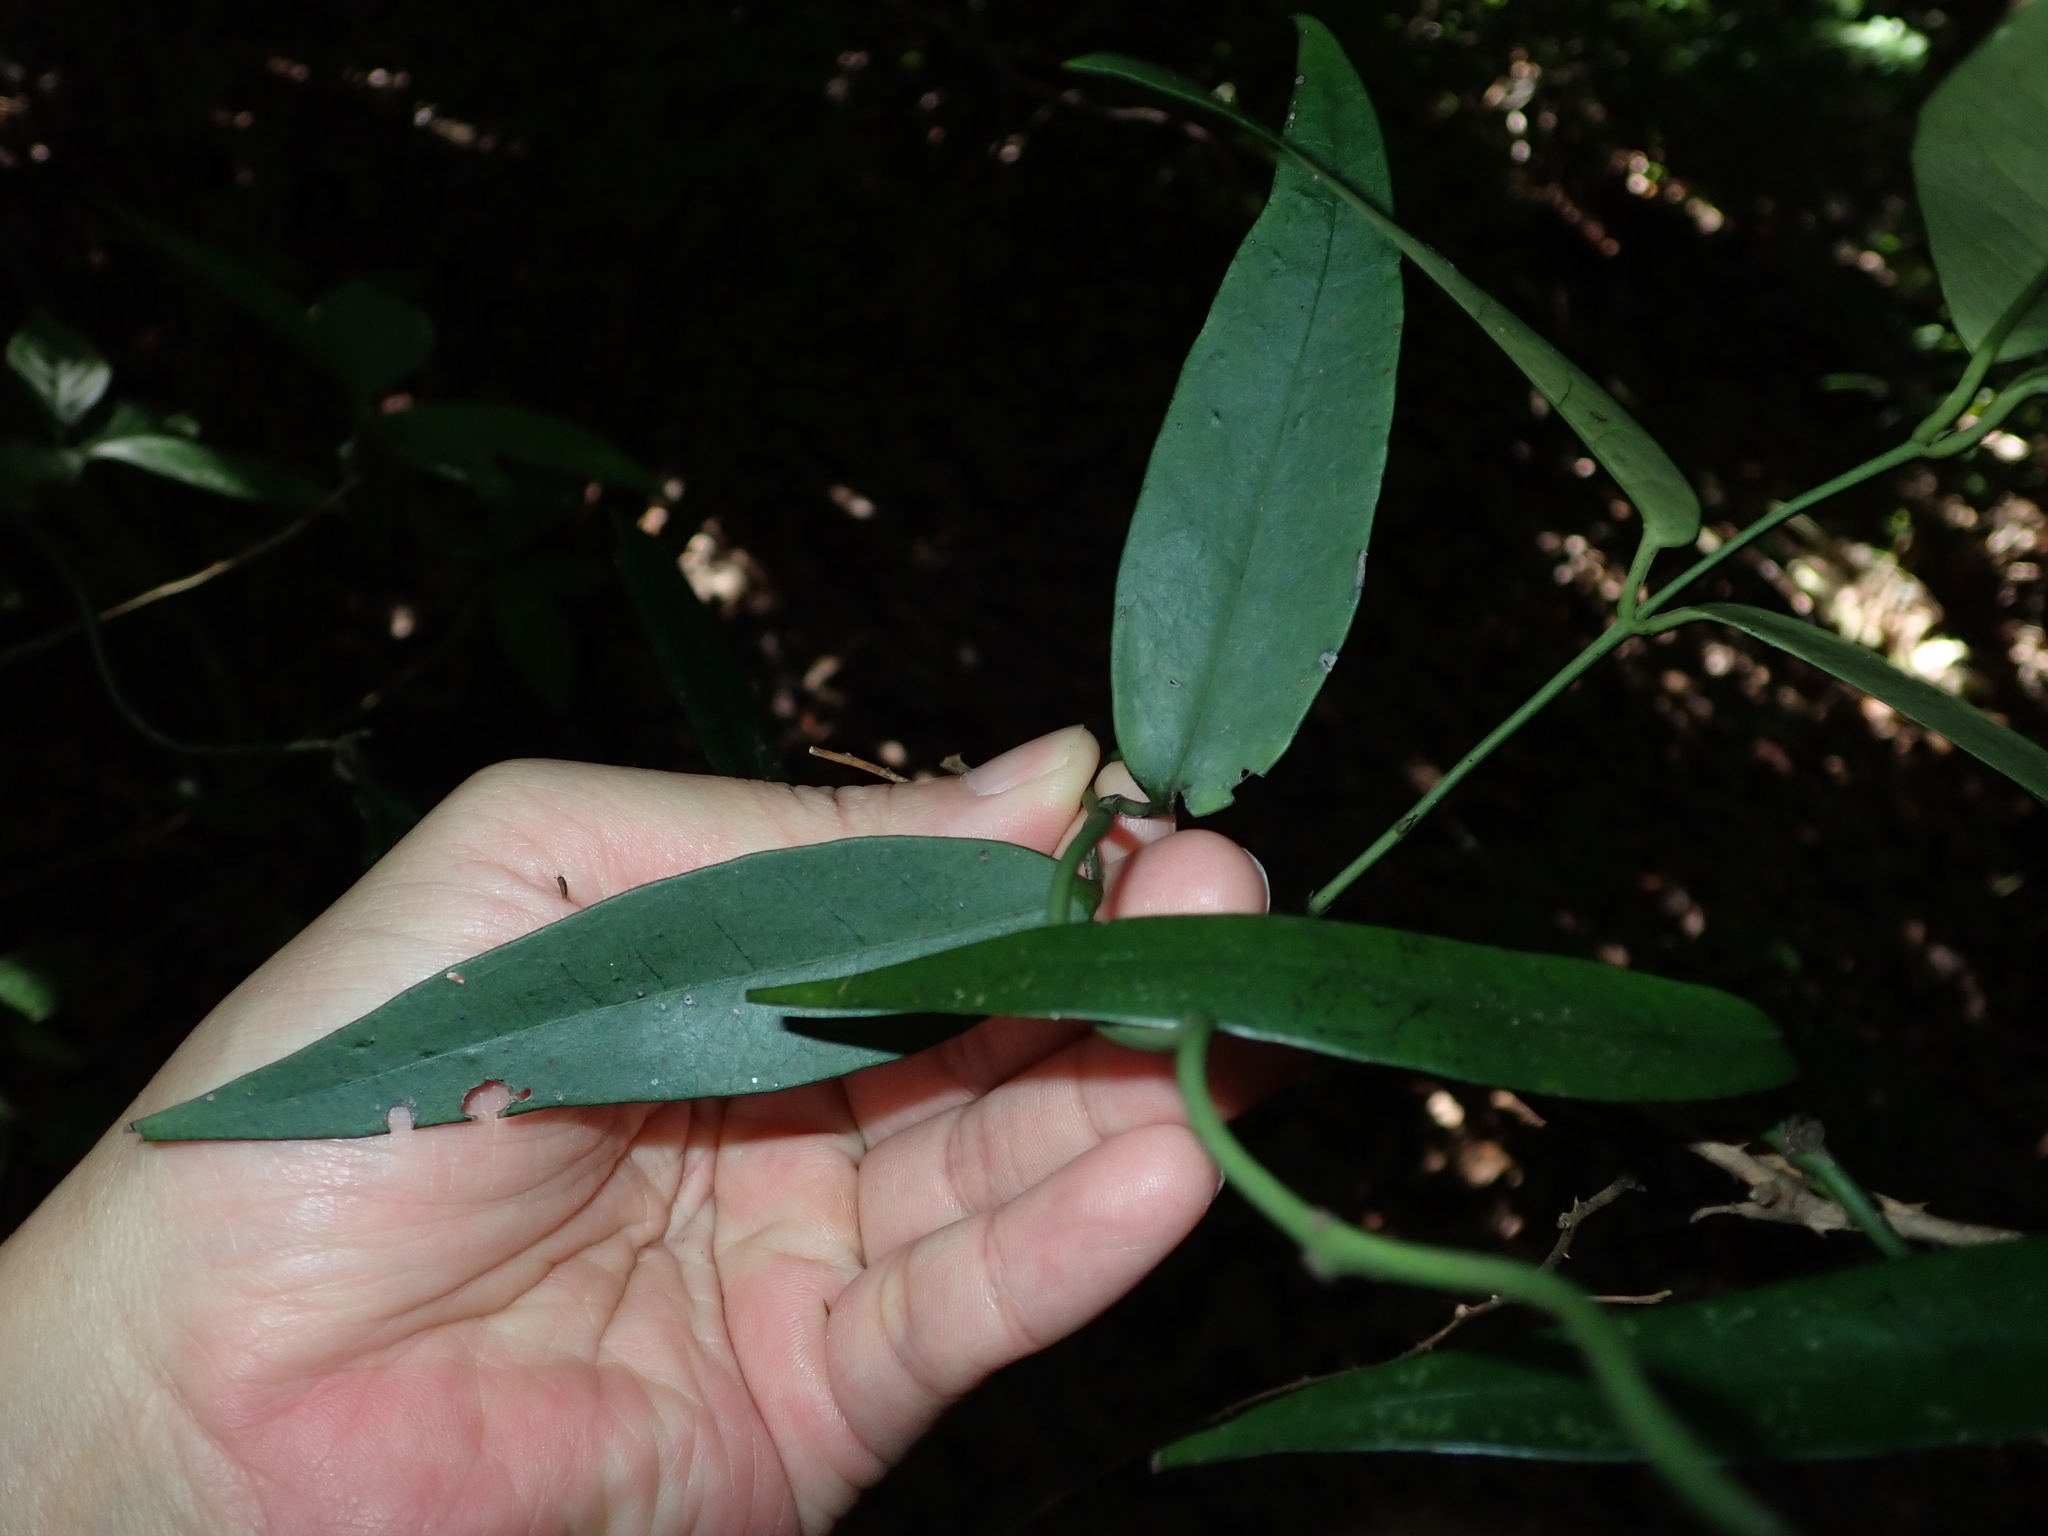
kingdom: Plantae
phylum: Tracheophyta
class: Magnoliopsida
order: Gentianales
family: Loganiaceae
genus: Gardneria
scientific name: Gardneria multiflora
